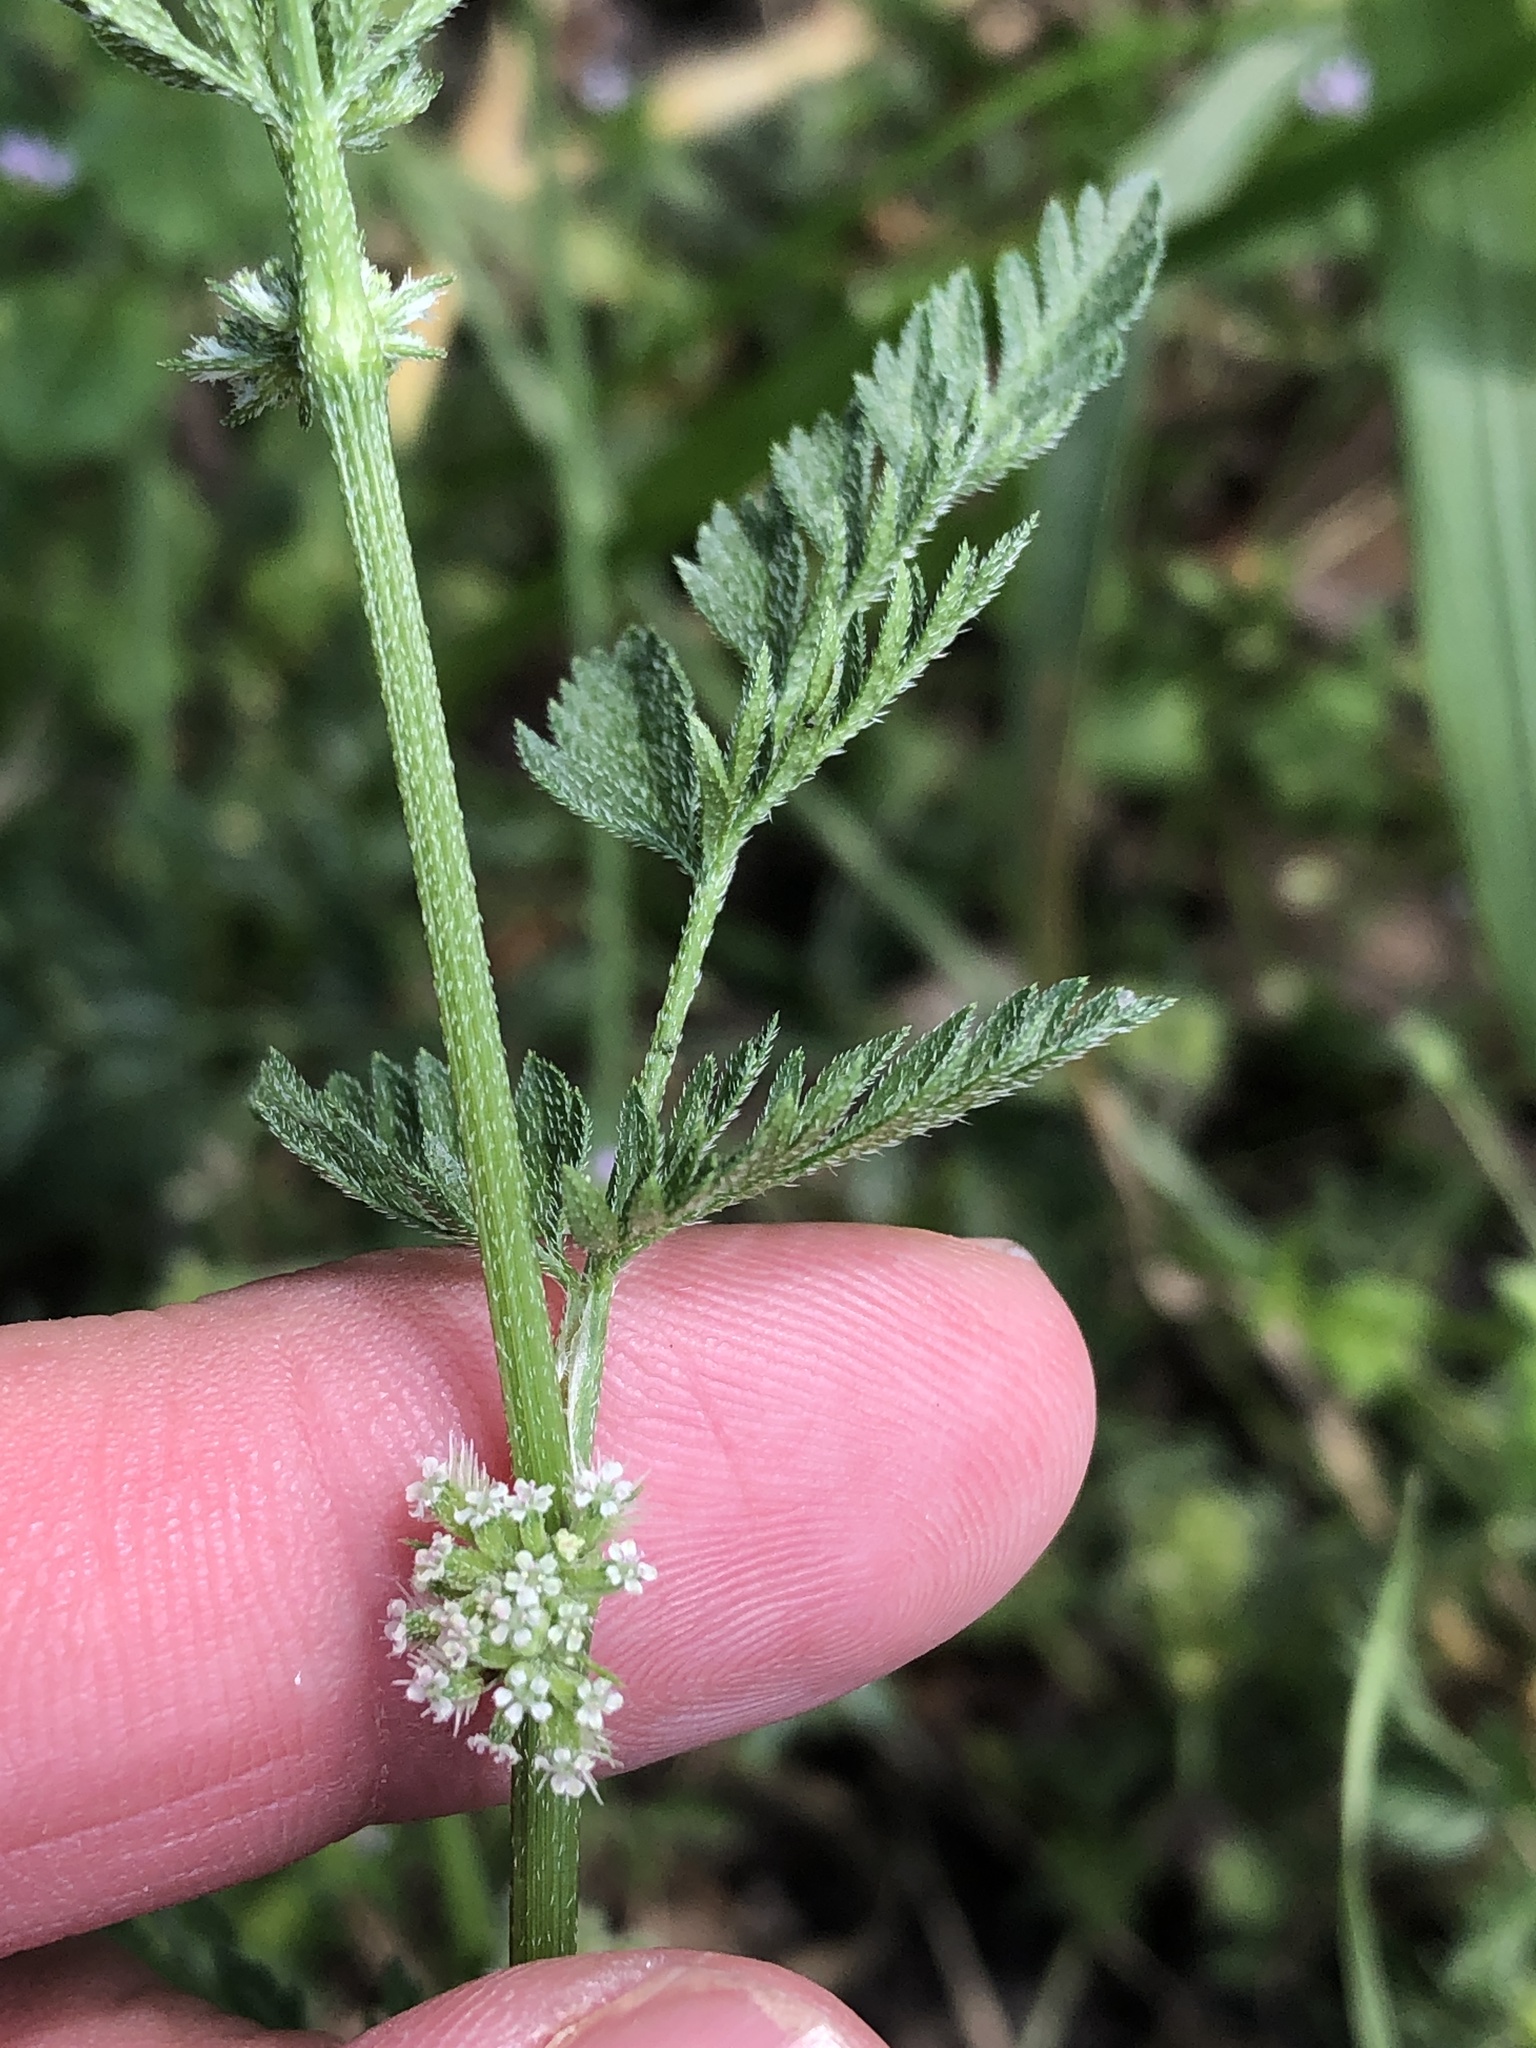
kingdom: Plantae
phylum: Tracheophyta
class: Magnoliopsida
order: Apiales
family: Apiaceae
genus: Torilis
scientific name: Torilis nodosa
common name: Knotted hedge-parsley
